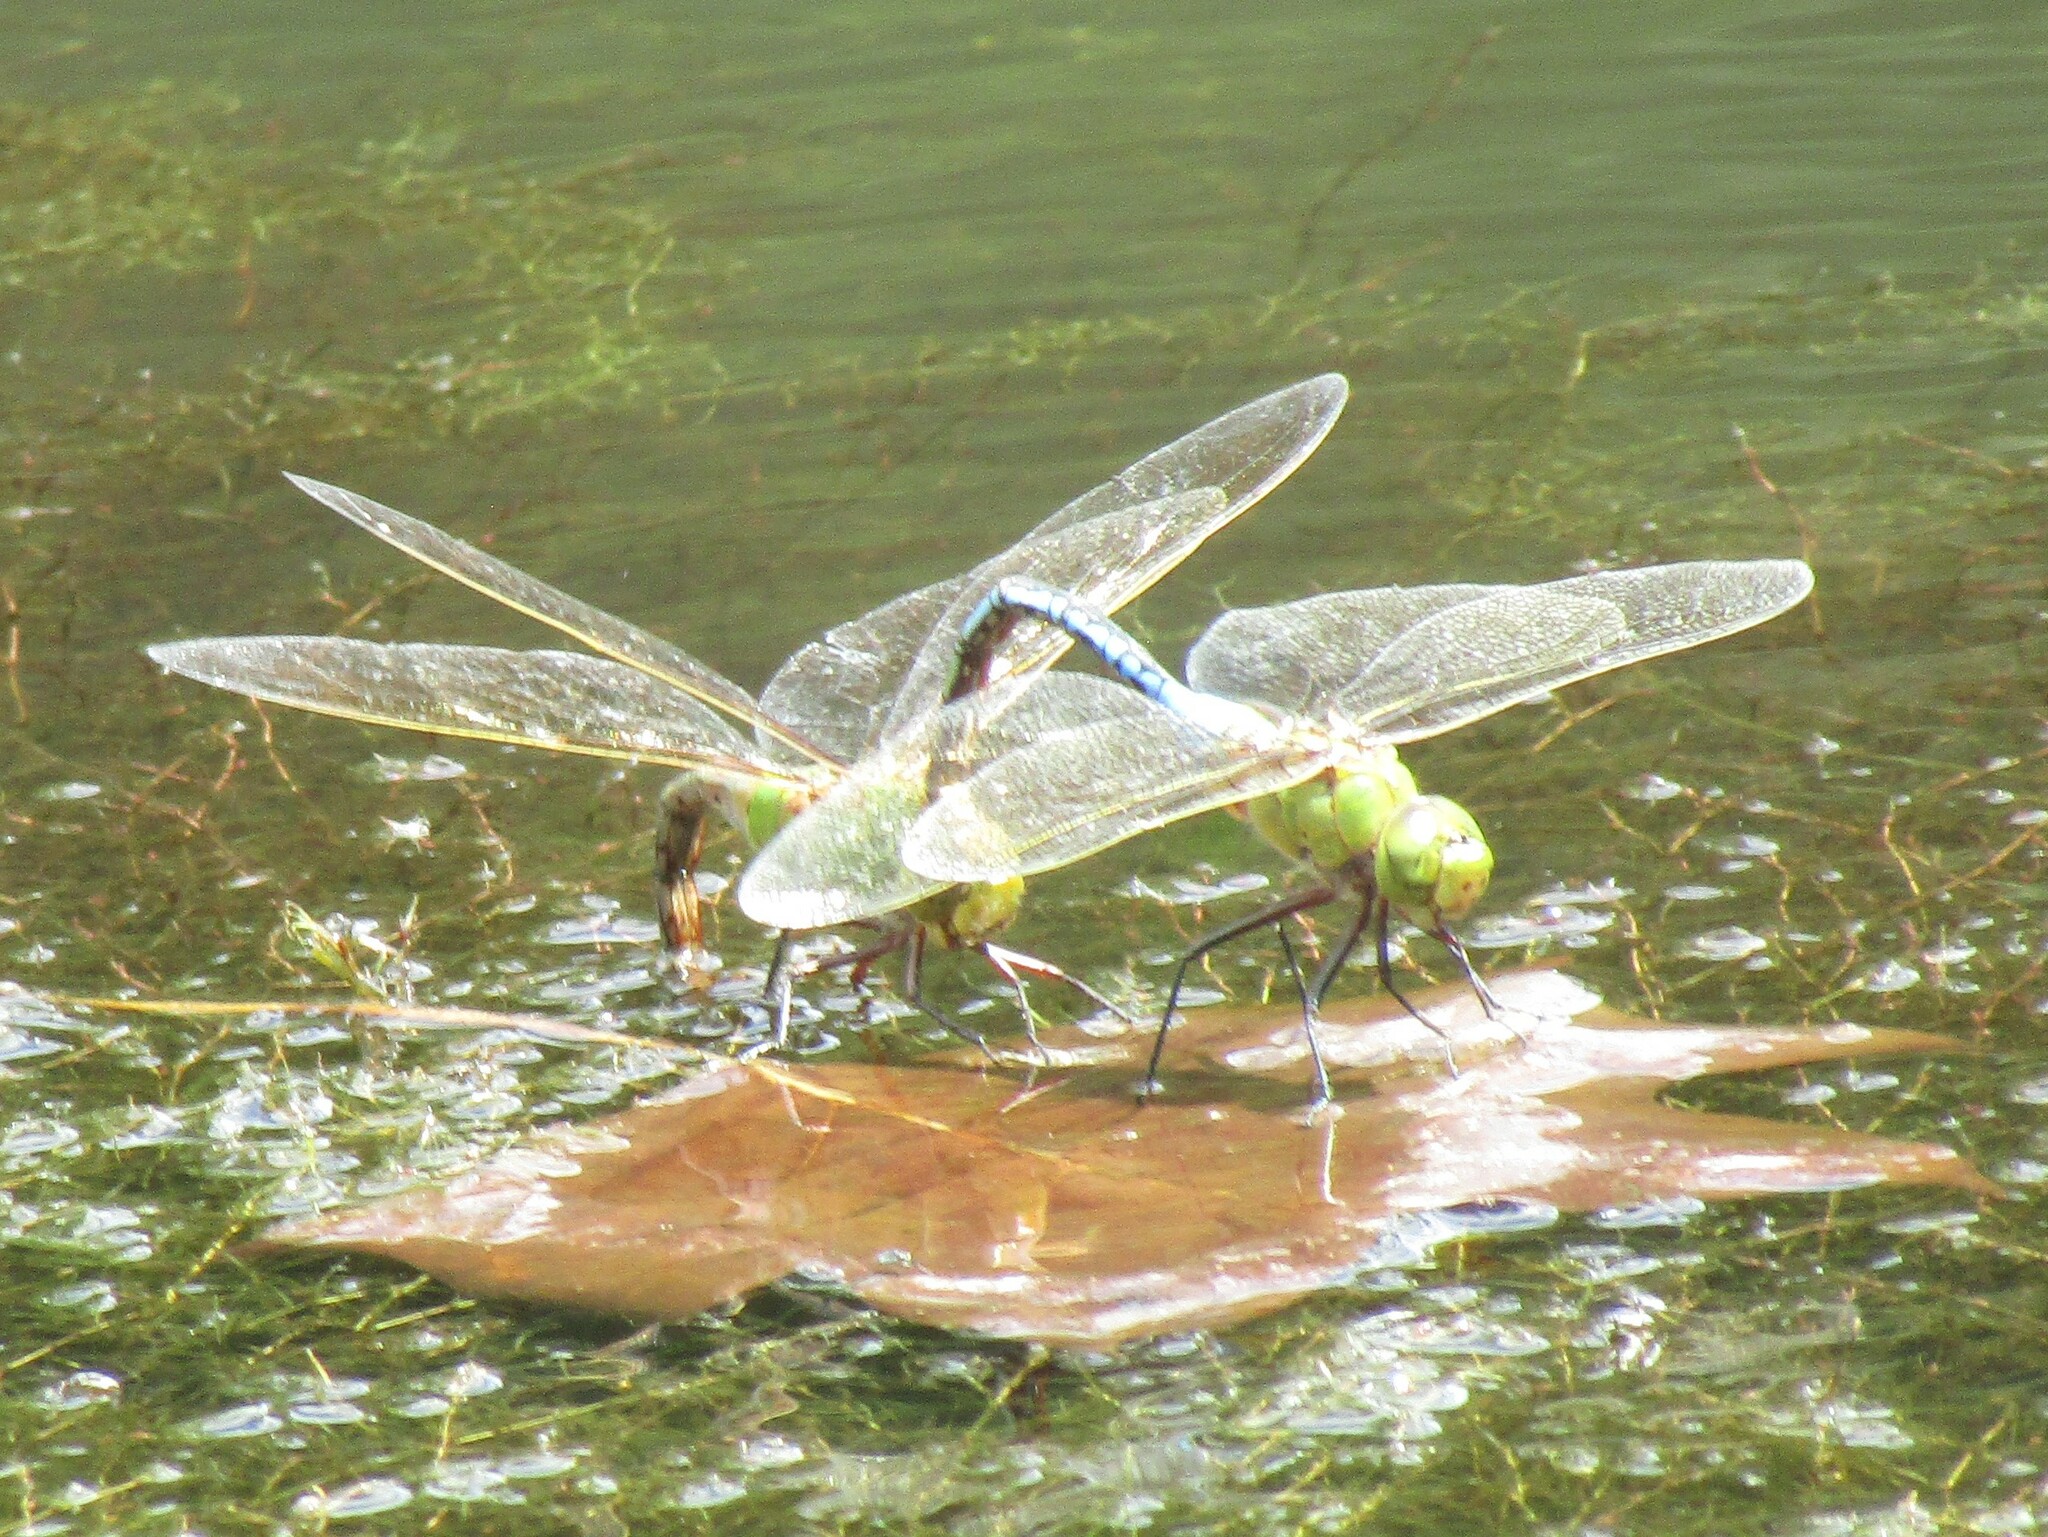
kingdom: Animalia
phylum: Arthropoda
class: Insecta
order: Odonata
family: Aeshnidae
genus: Anax
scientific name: Anax junius
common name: Common green darner
